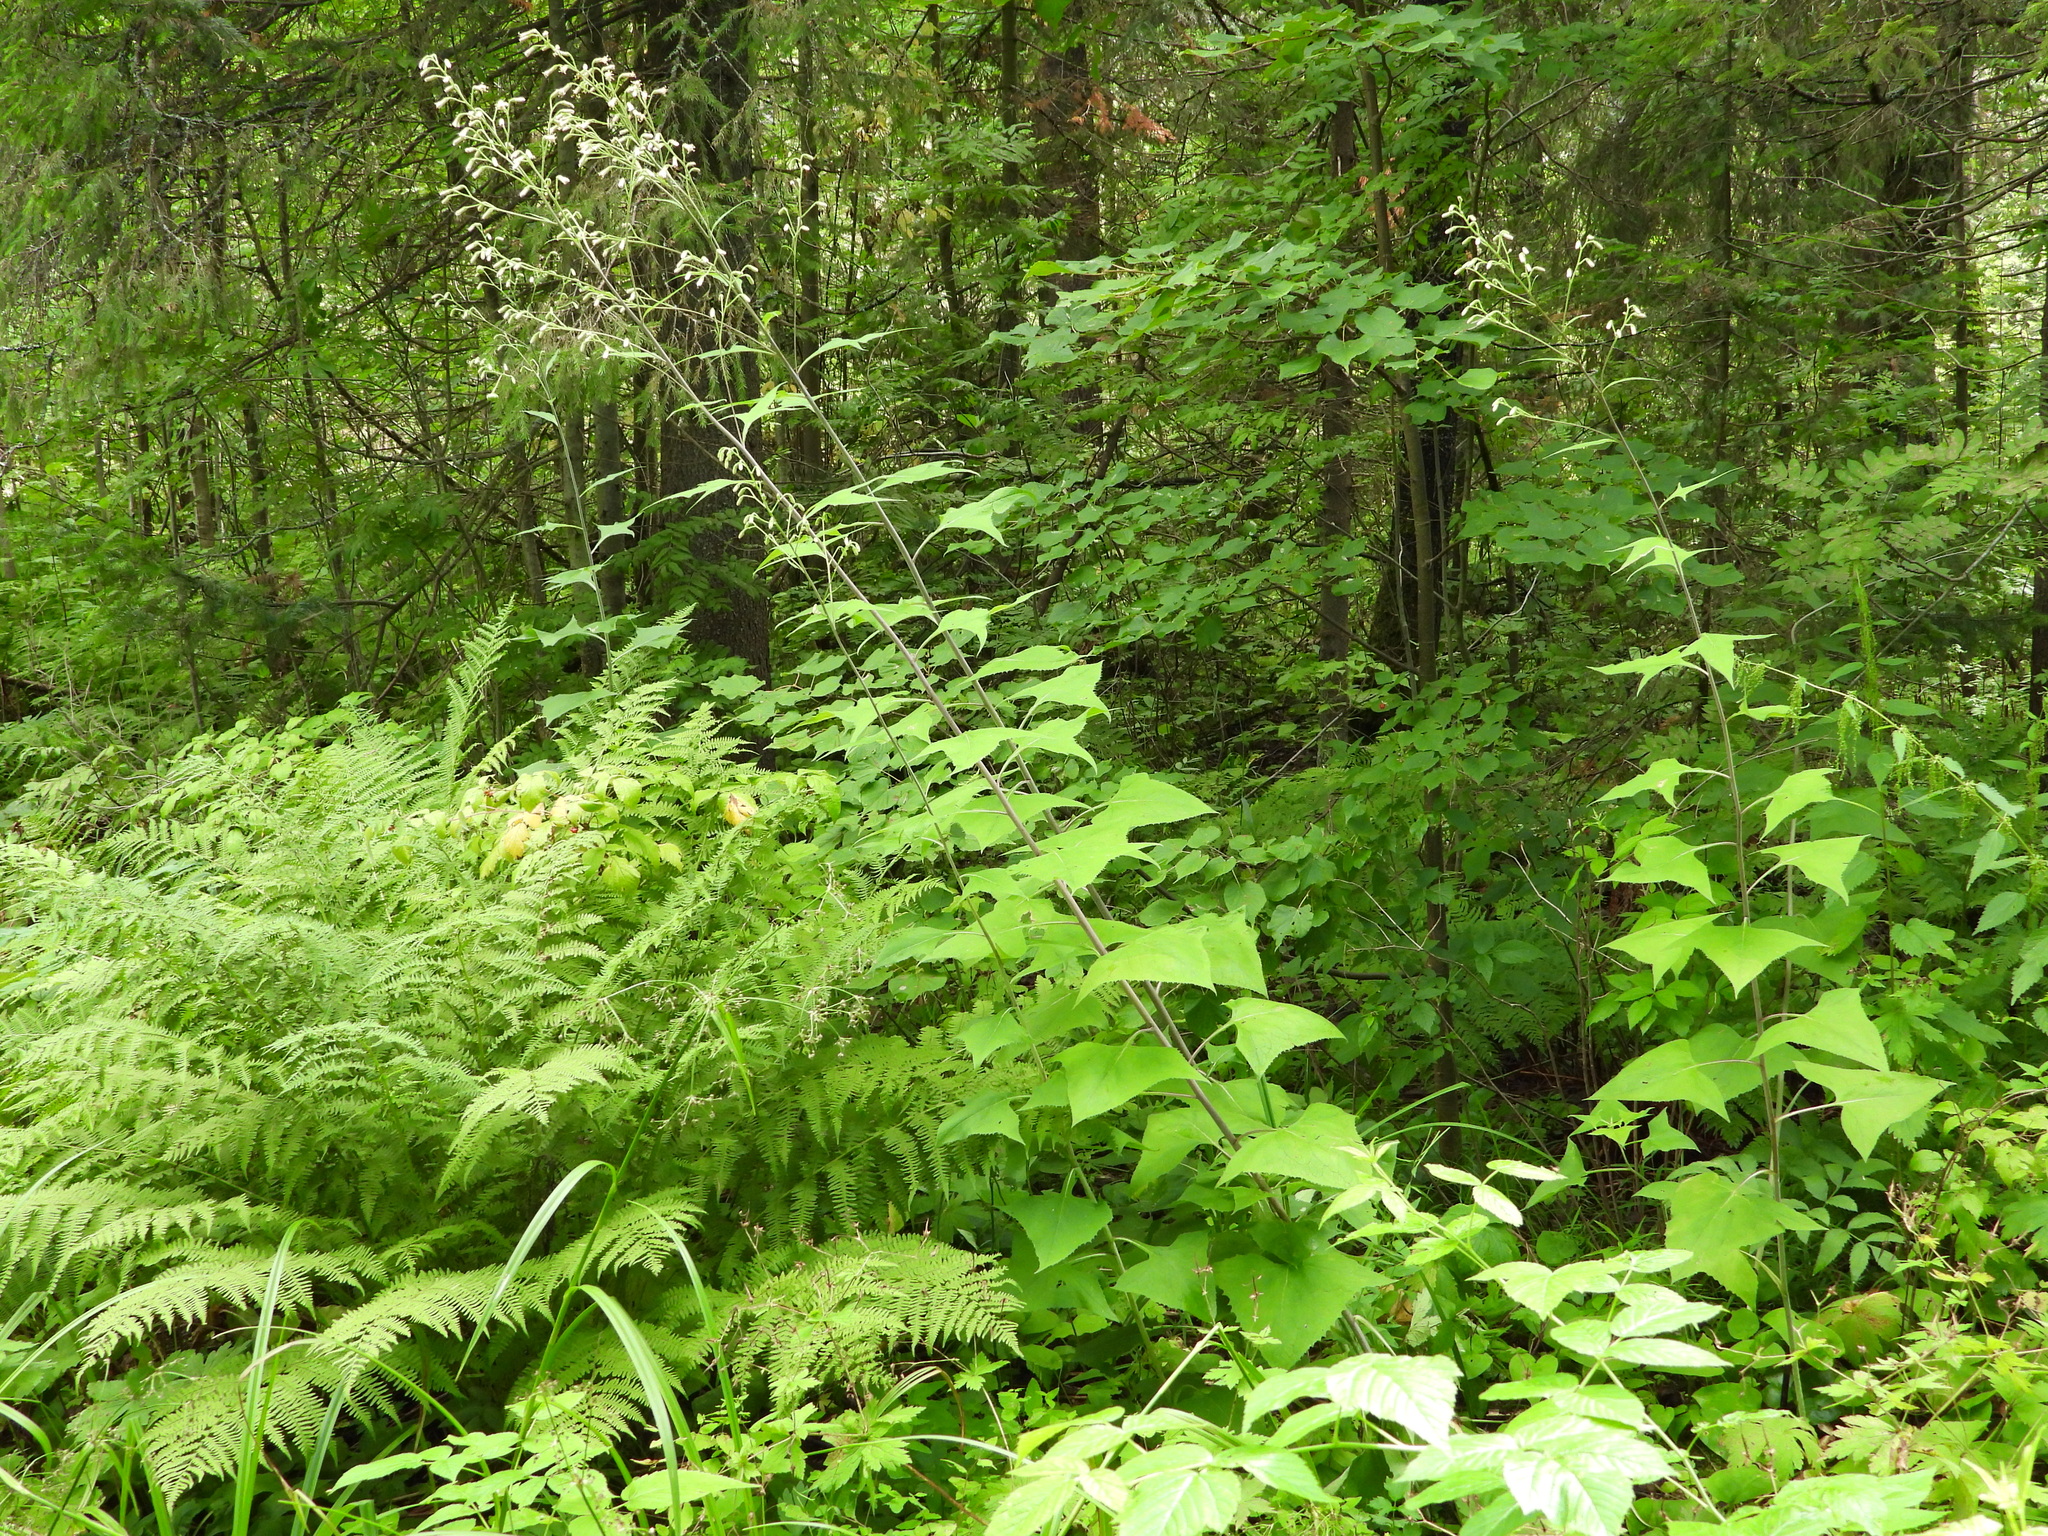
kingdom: Plantae
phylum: Tracheophyta
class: Magnoliopsida
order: Asterales
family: Asteraceae
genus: Parasenecio
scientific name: Parasenecio hastatus
